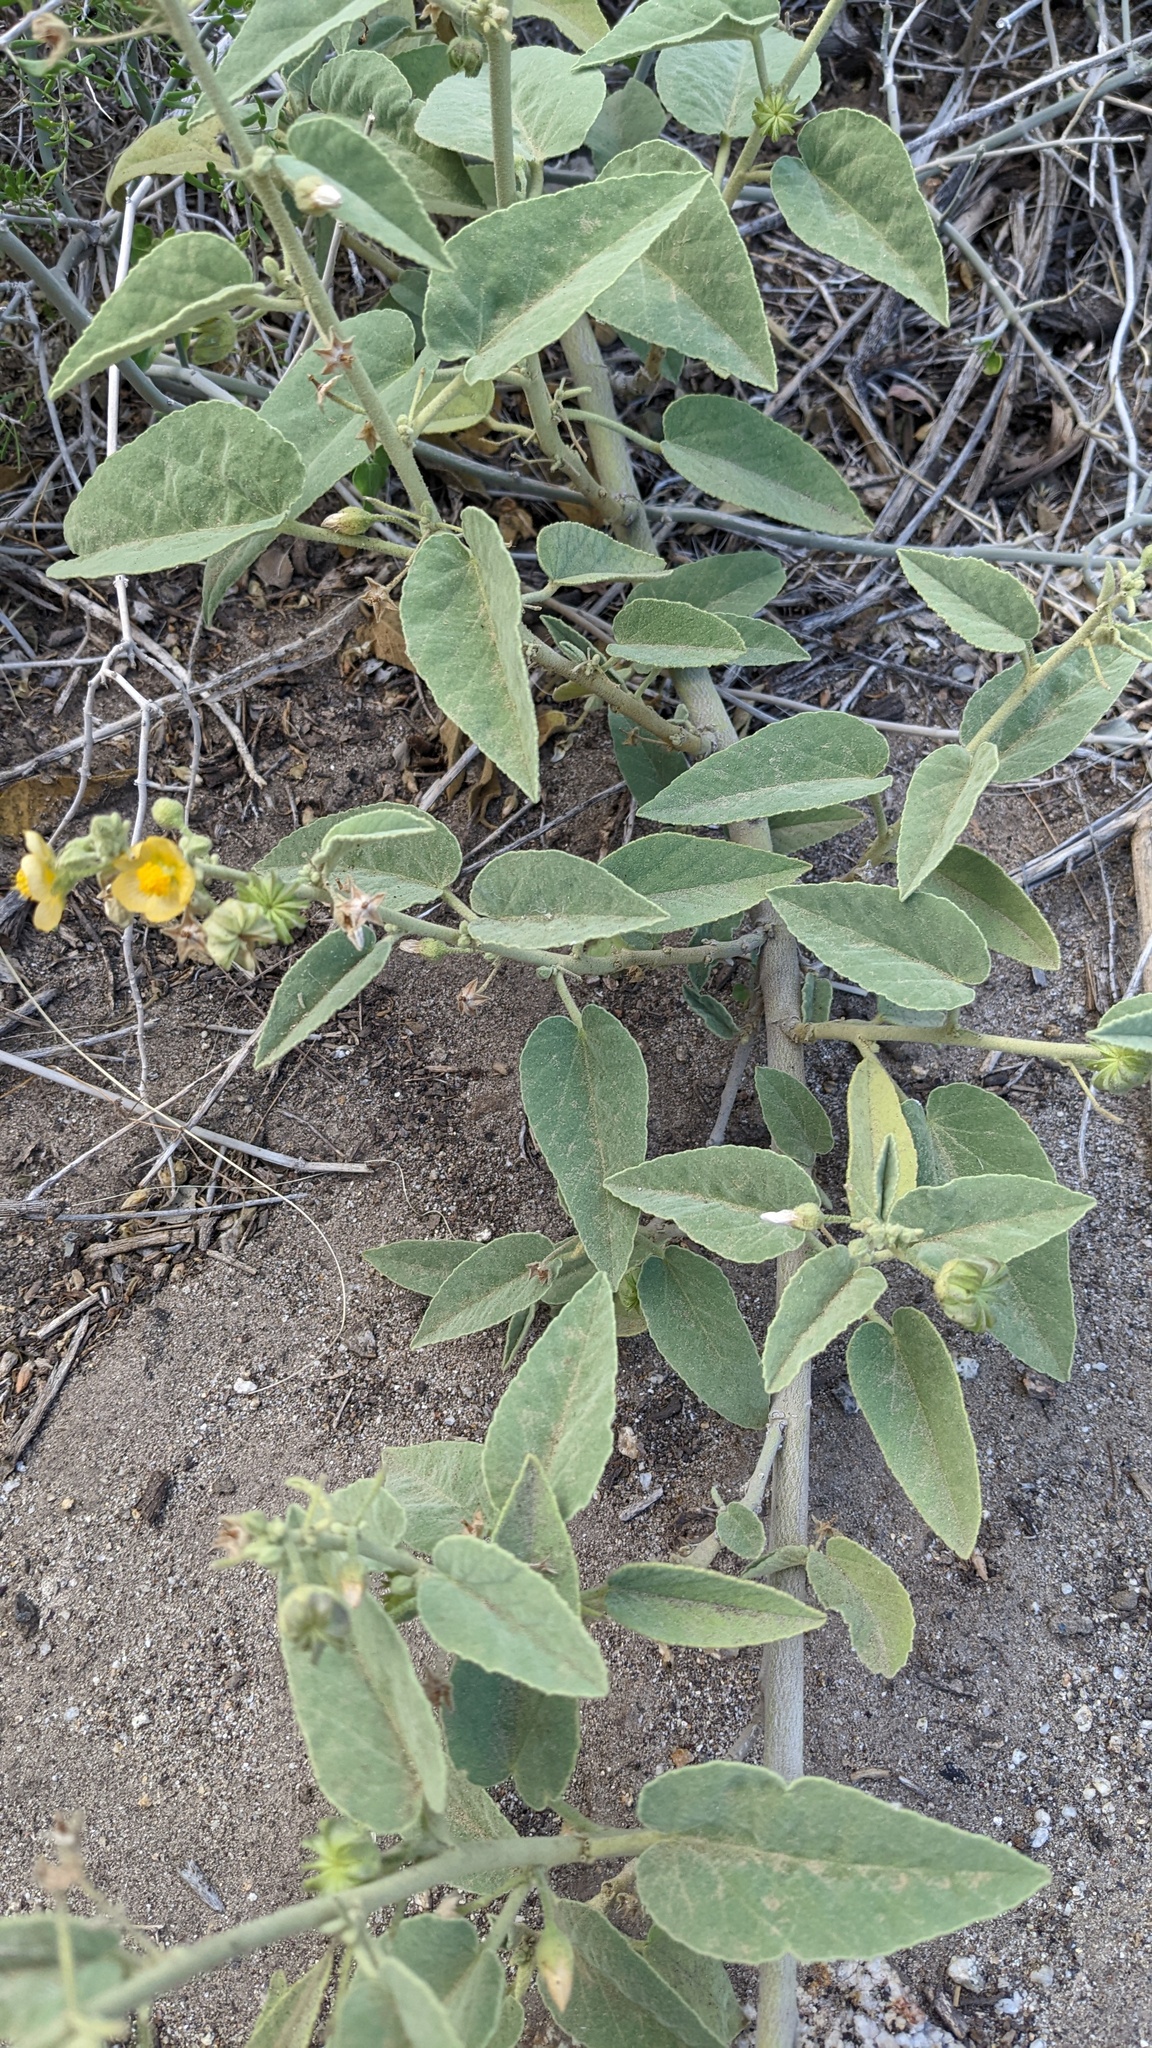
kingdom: Plantae
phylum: Tracheophyta
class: Magnoliopsida
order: Malvales
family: Malvaceae
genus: Horsfordia
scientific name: Horsfordia newberryi
